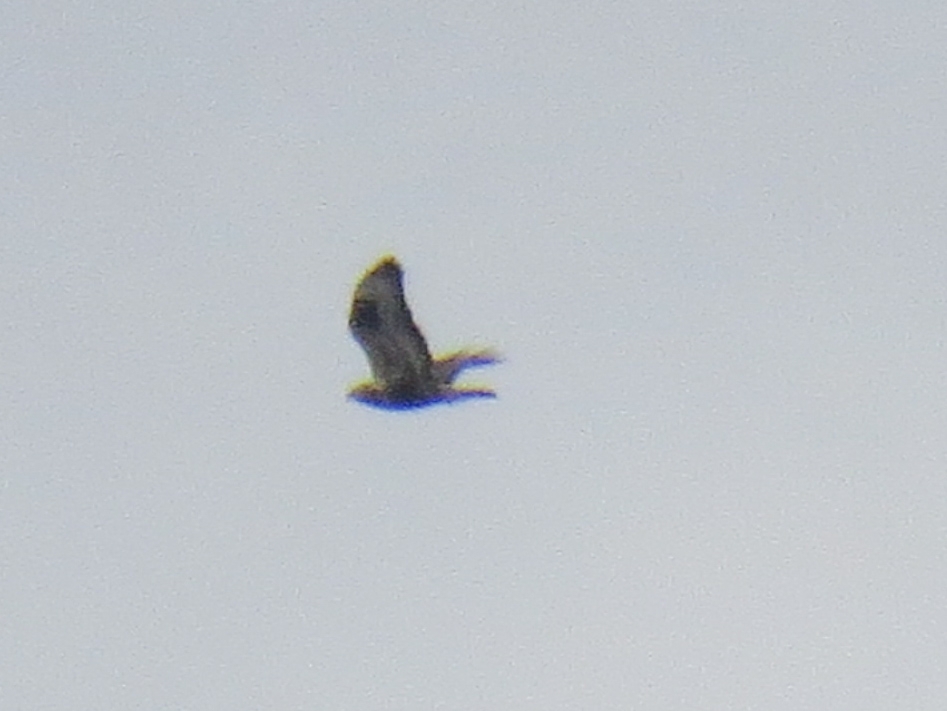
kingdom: Animalia
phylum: Chordata
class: Aves
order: Accipitriformes
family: Accipitridae
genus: Buteo
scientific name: Buteo lagopus
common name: Rough-legged buzzard
